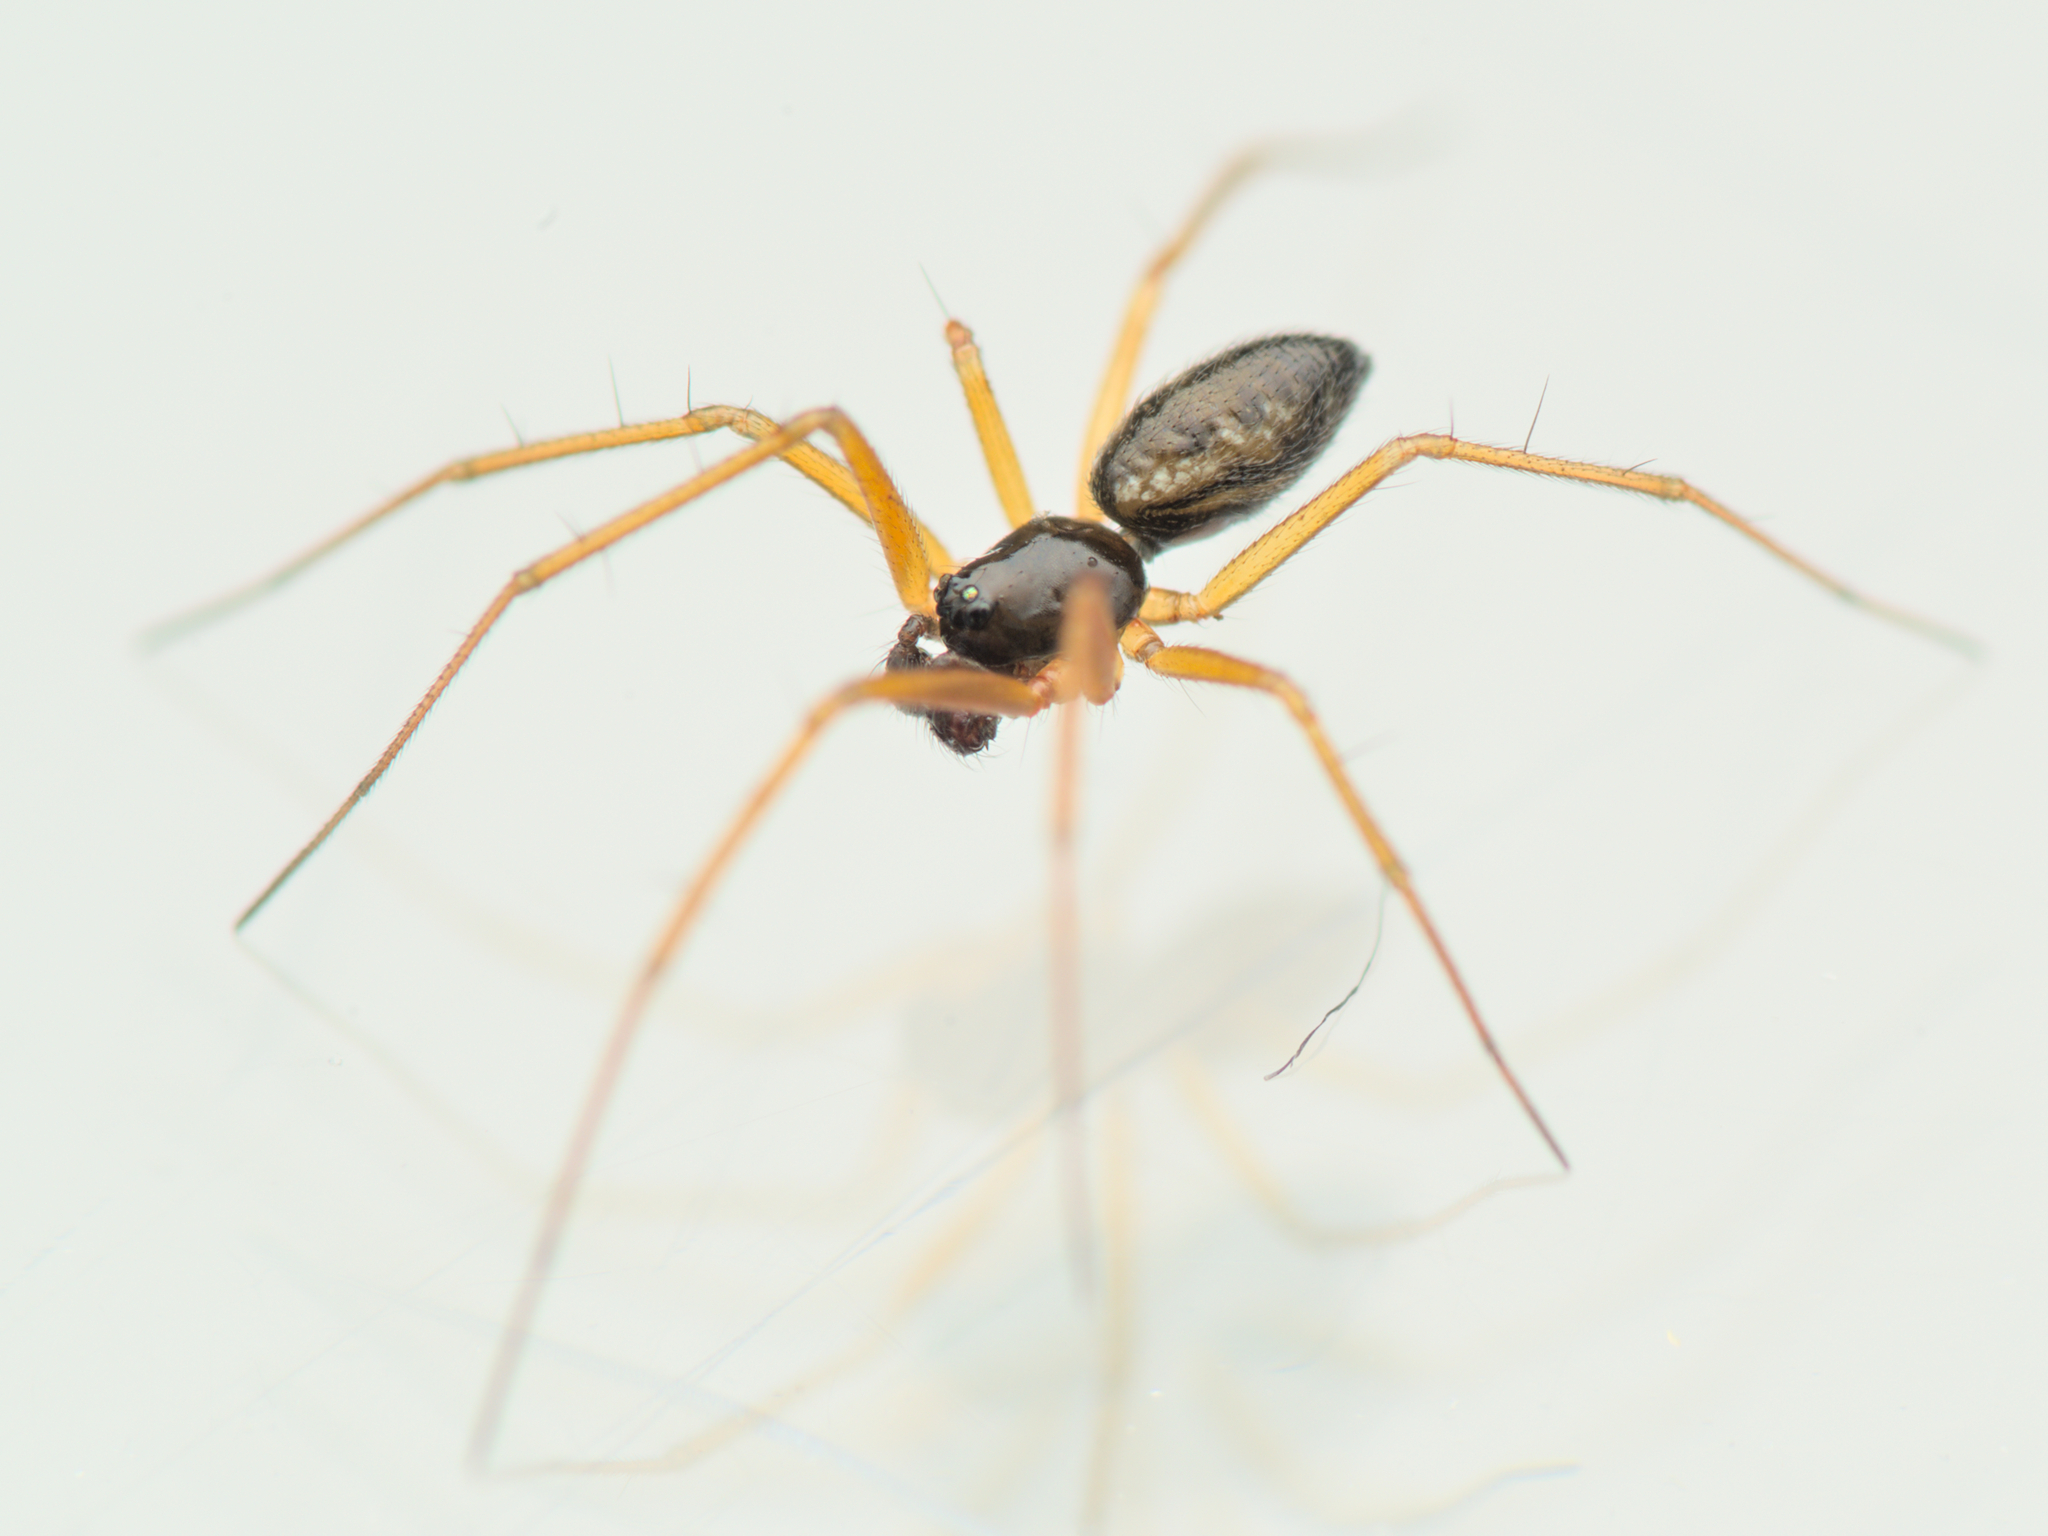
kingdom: Animalia
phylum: Arthropoda
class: Arachnida
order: Araneae
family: Linyphiidae
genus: Tenuiphantes
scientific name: Tenuiphantes tenuis
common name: Dwarf weaver
